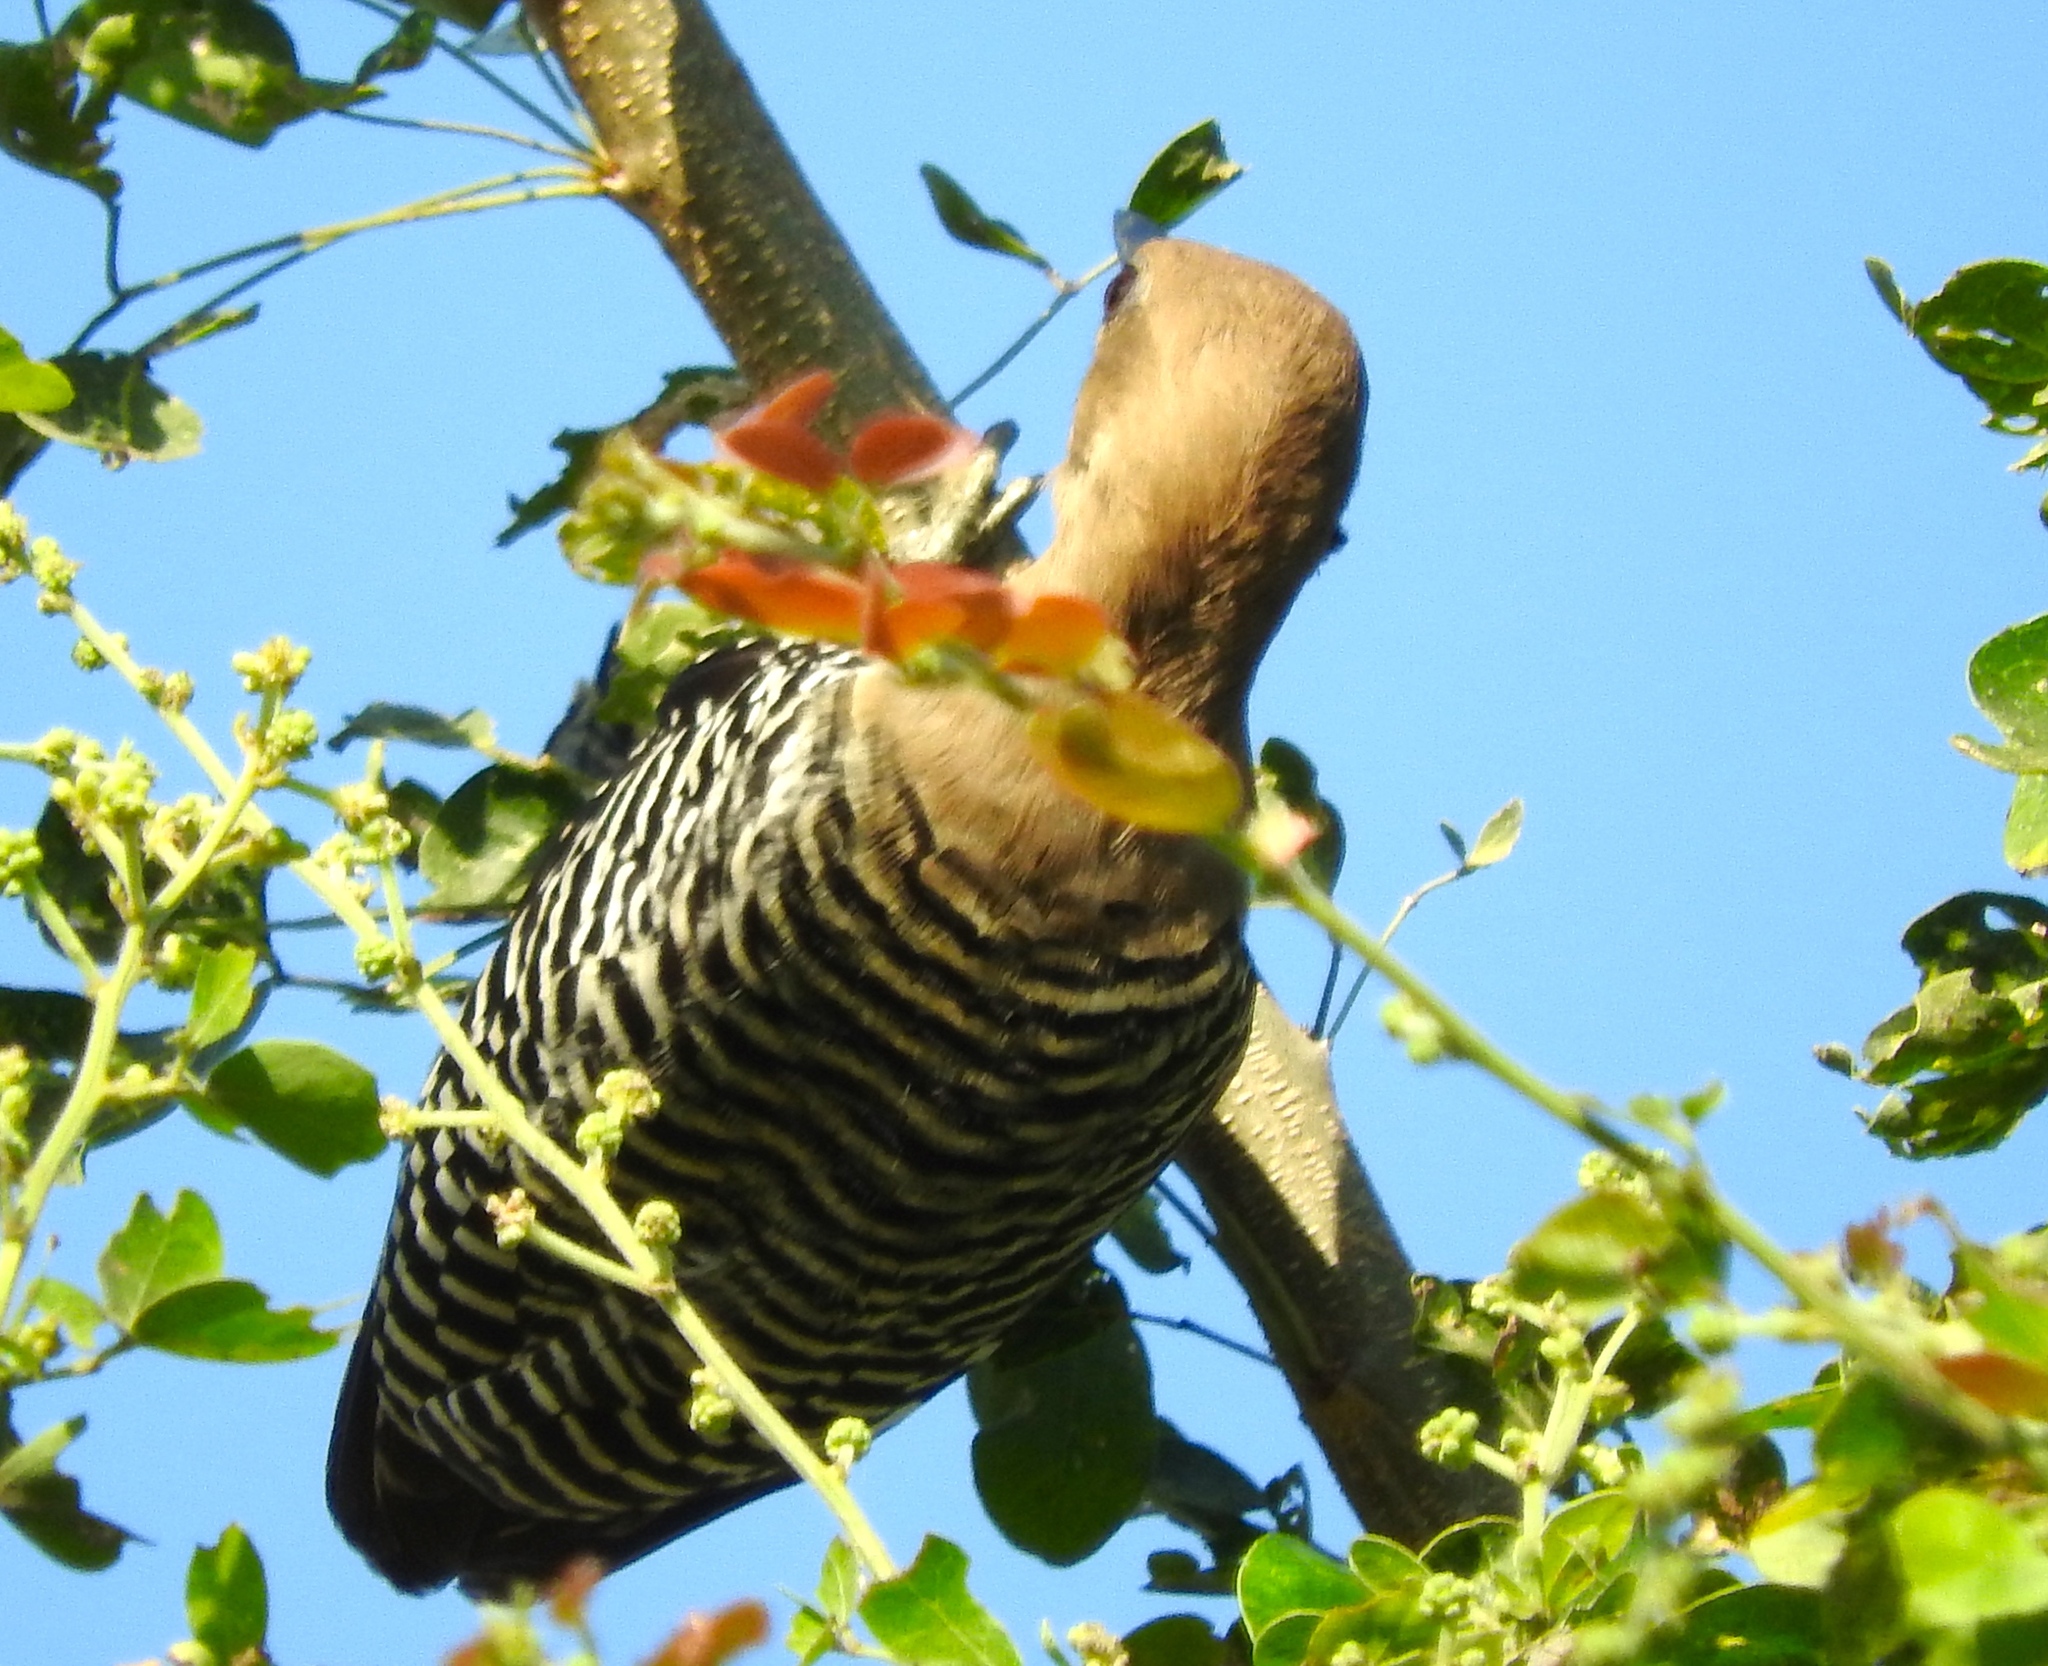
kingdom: Animalia
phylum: Chordata
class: Aves
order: Piciformes
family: Picidae
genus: Melanerpes
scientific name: Melanerpes uropygialis
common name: Gila woodpecker
